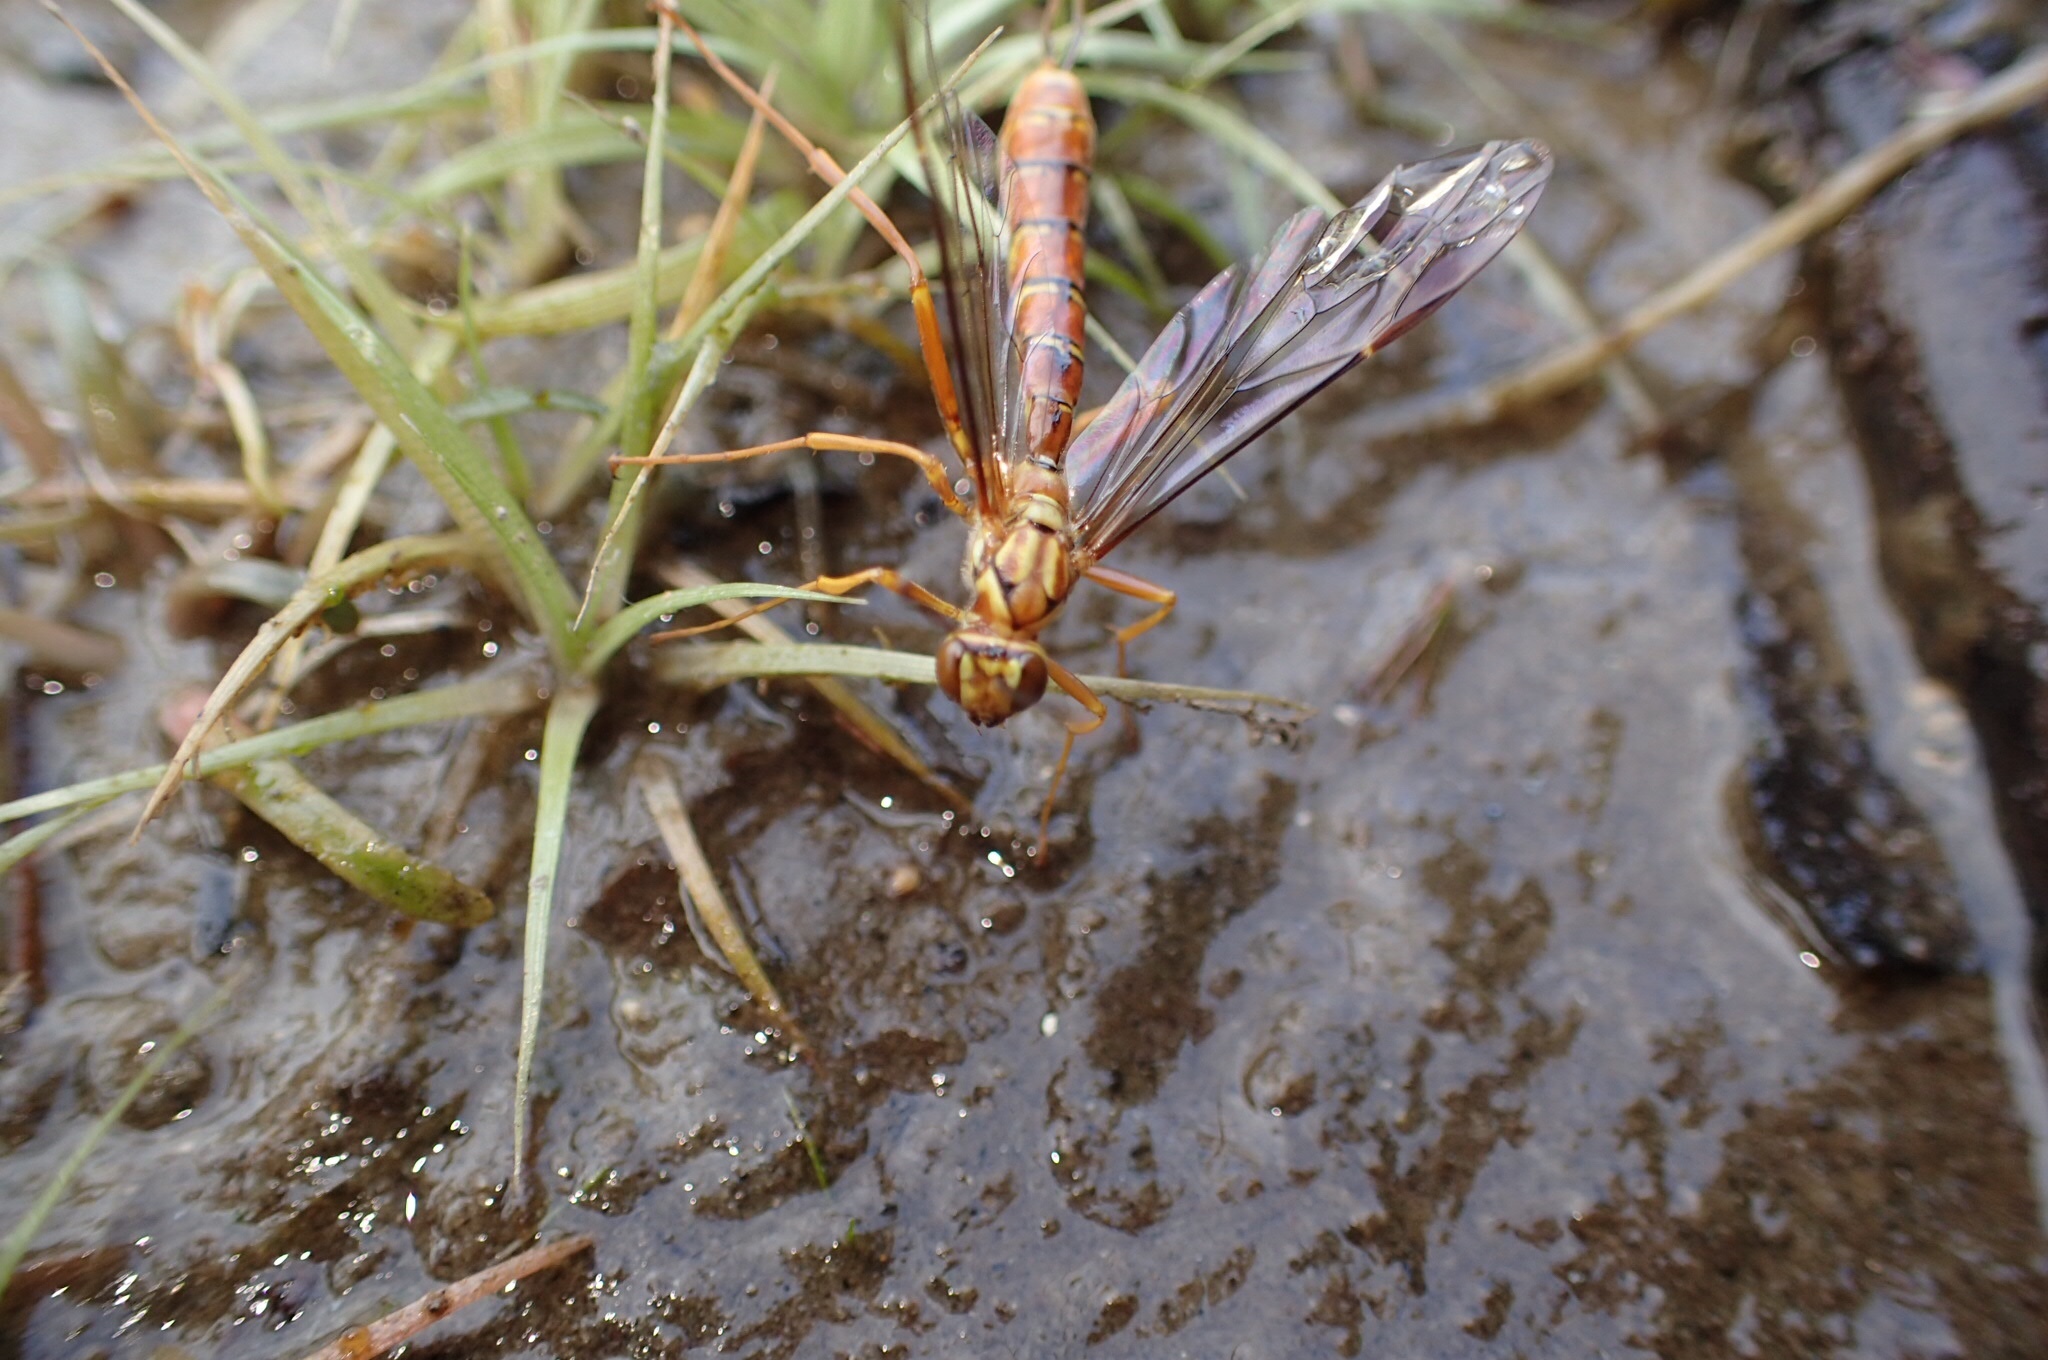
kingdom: Animalia
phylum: Arthropoda
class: Insecta
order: Hymenoptera
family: Ichneumonidae
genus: Megarhyssa
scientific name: Megarhyssa greenei
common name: Greene's giant ichneumonid wasp
